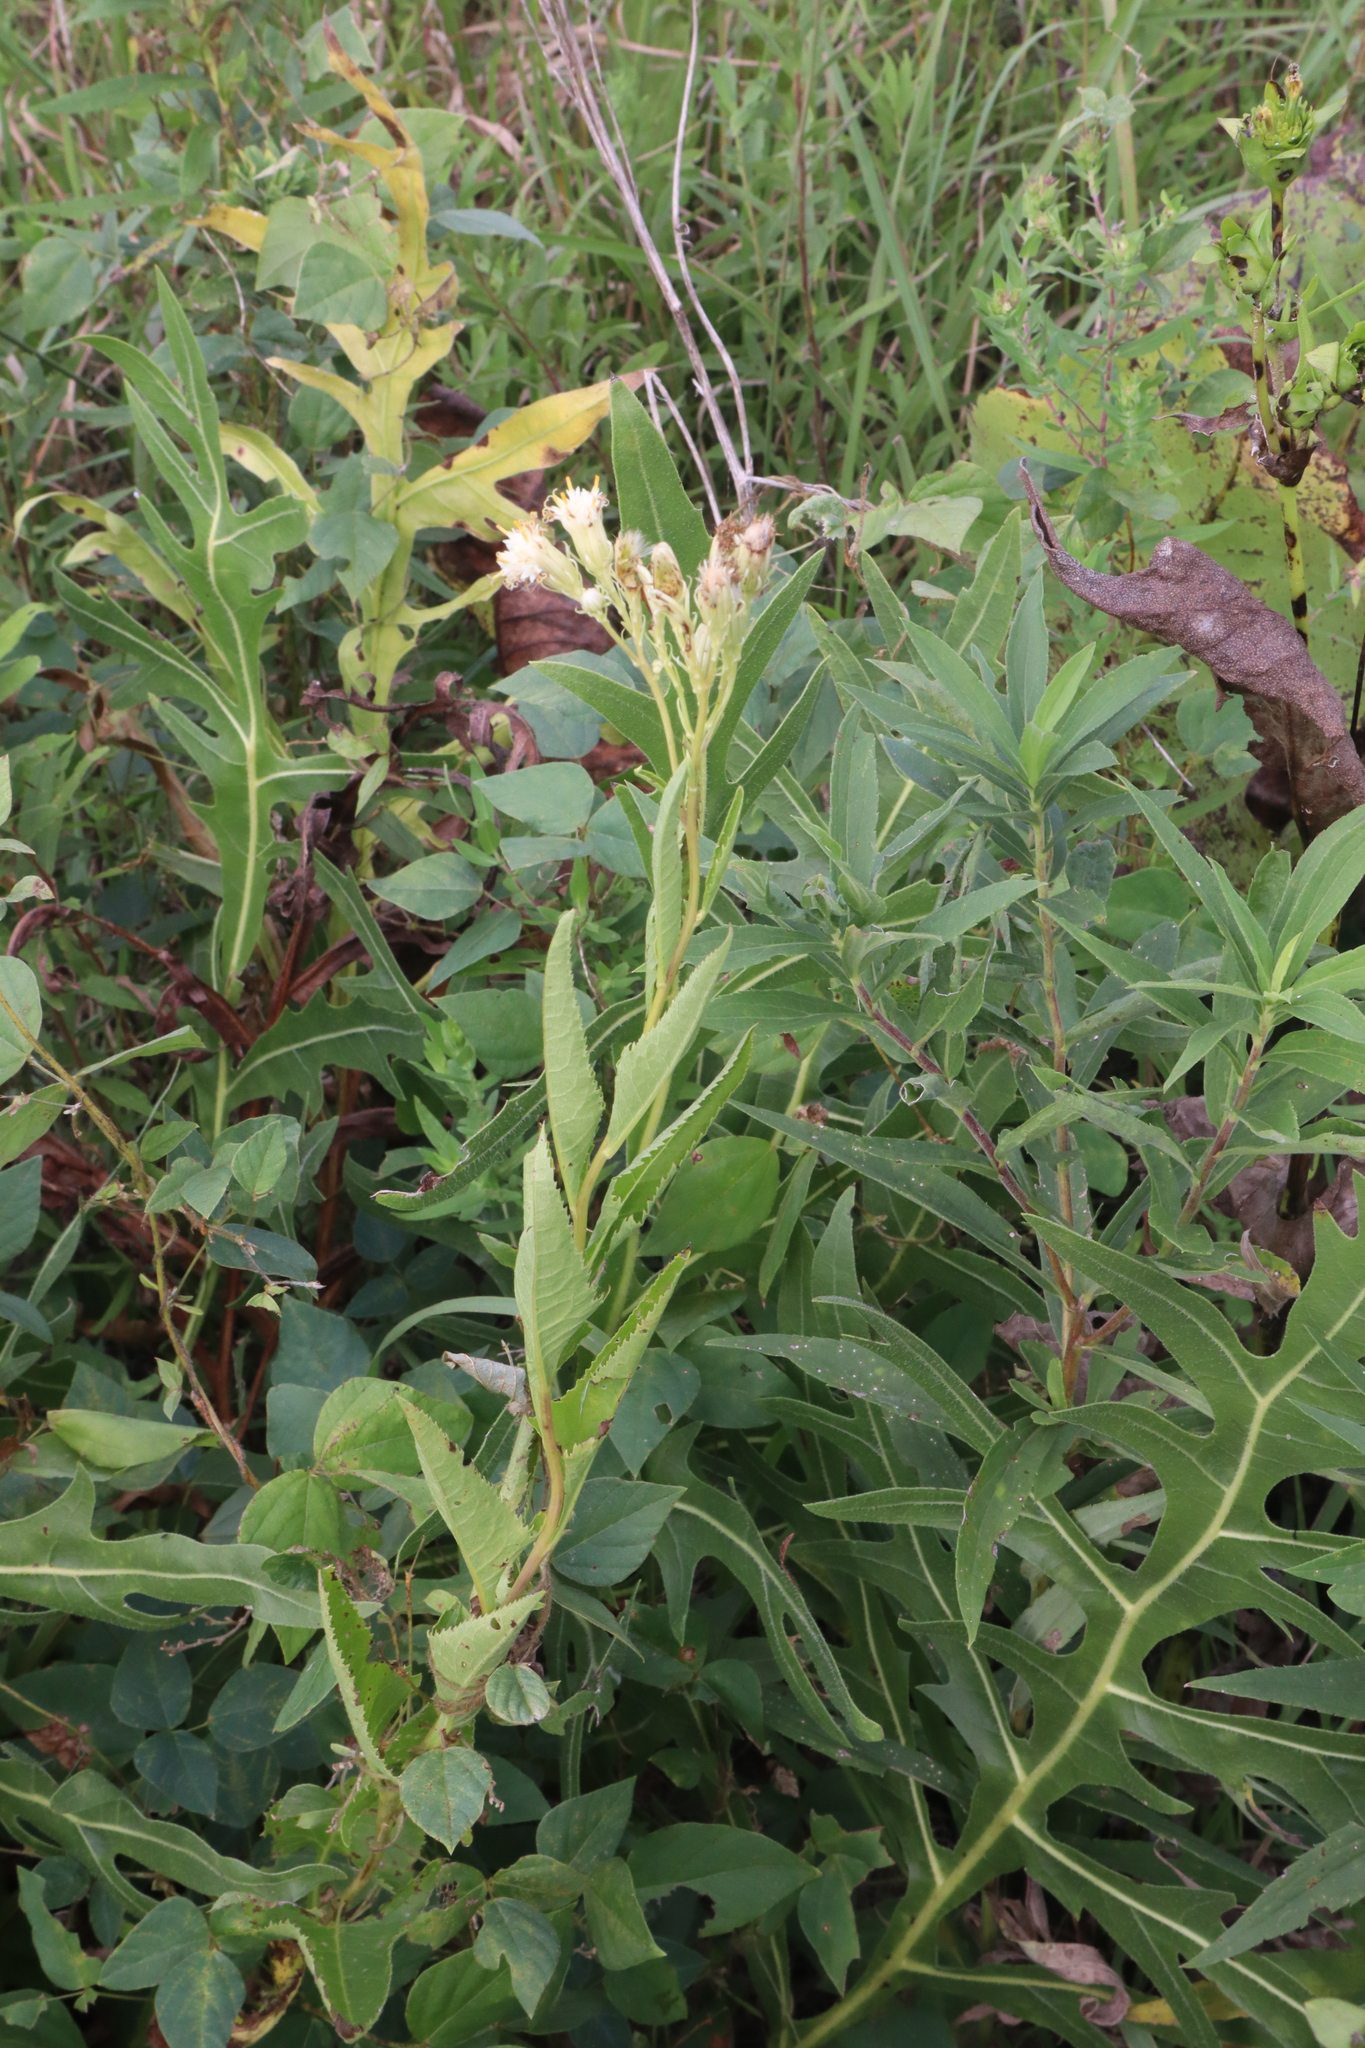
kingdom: Plantae
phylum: Tracheophyta
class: Magnoliopsida
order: Asterales
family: Asteraceae
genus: Hasteola
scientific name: Hasteola suaveolens
